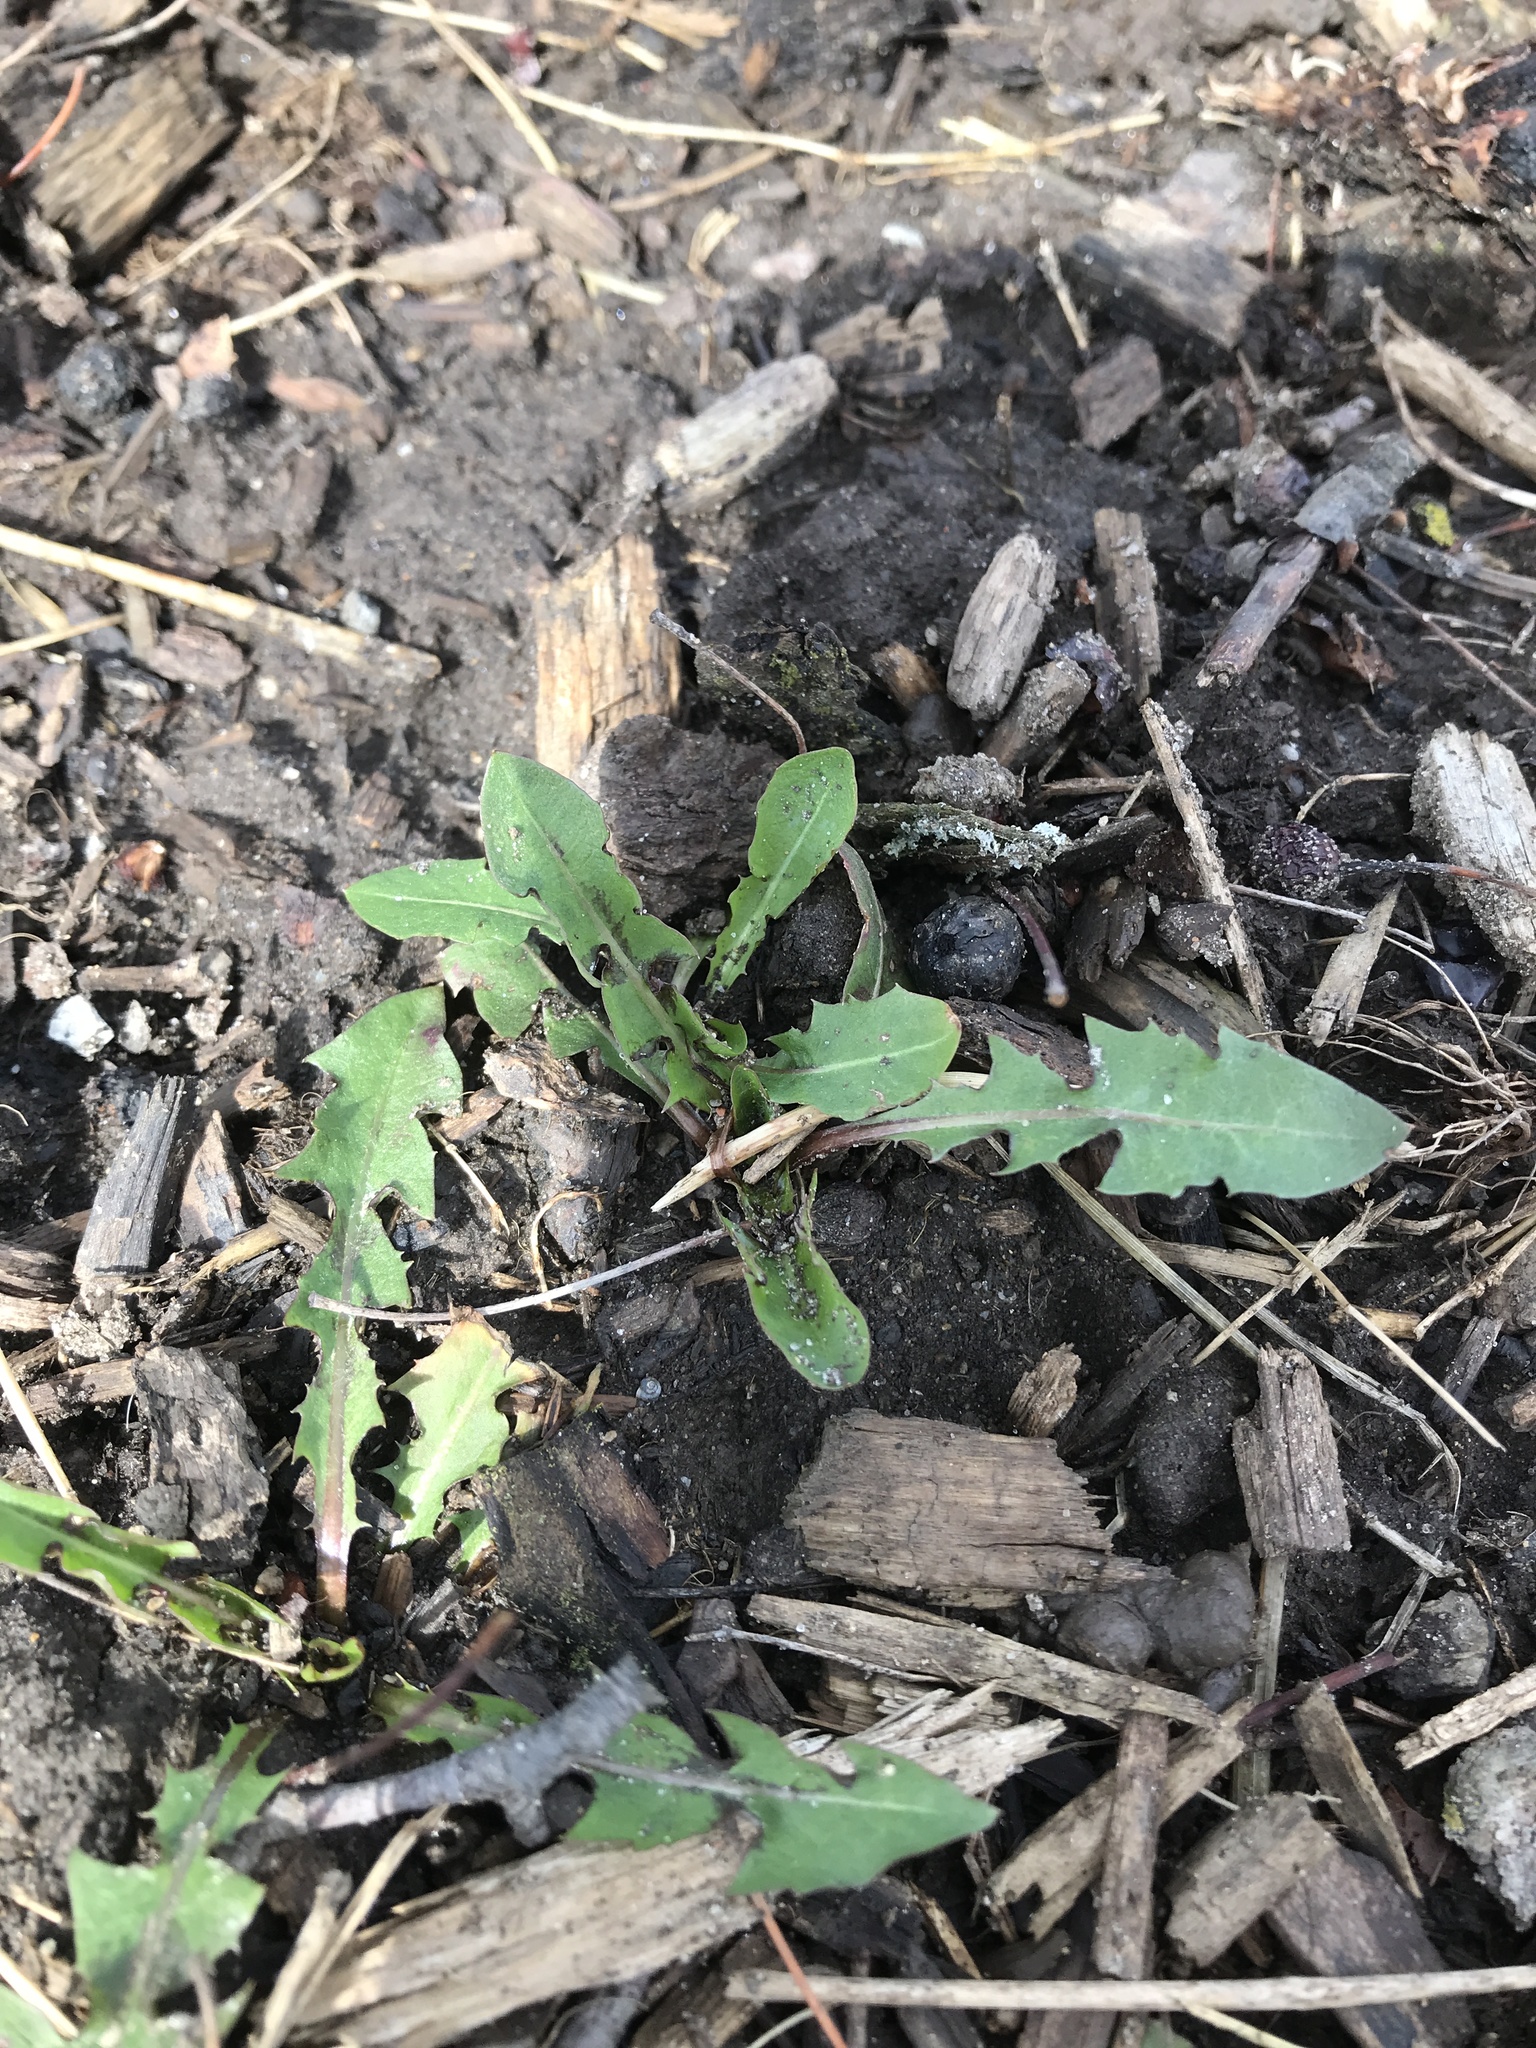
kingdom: Plantae
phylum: Tracheophyta
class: Magnoliopsida
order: Asterales
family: Asteraceae
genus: Taraxacum
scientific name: Taraxacum officinale
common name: Common dandelion
